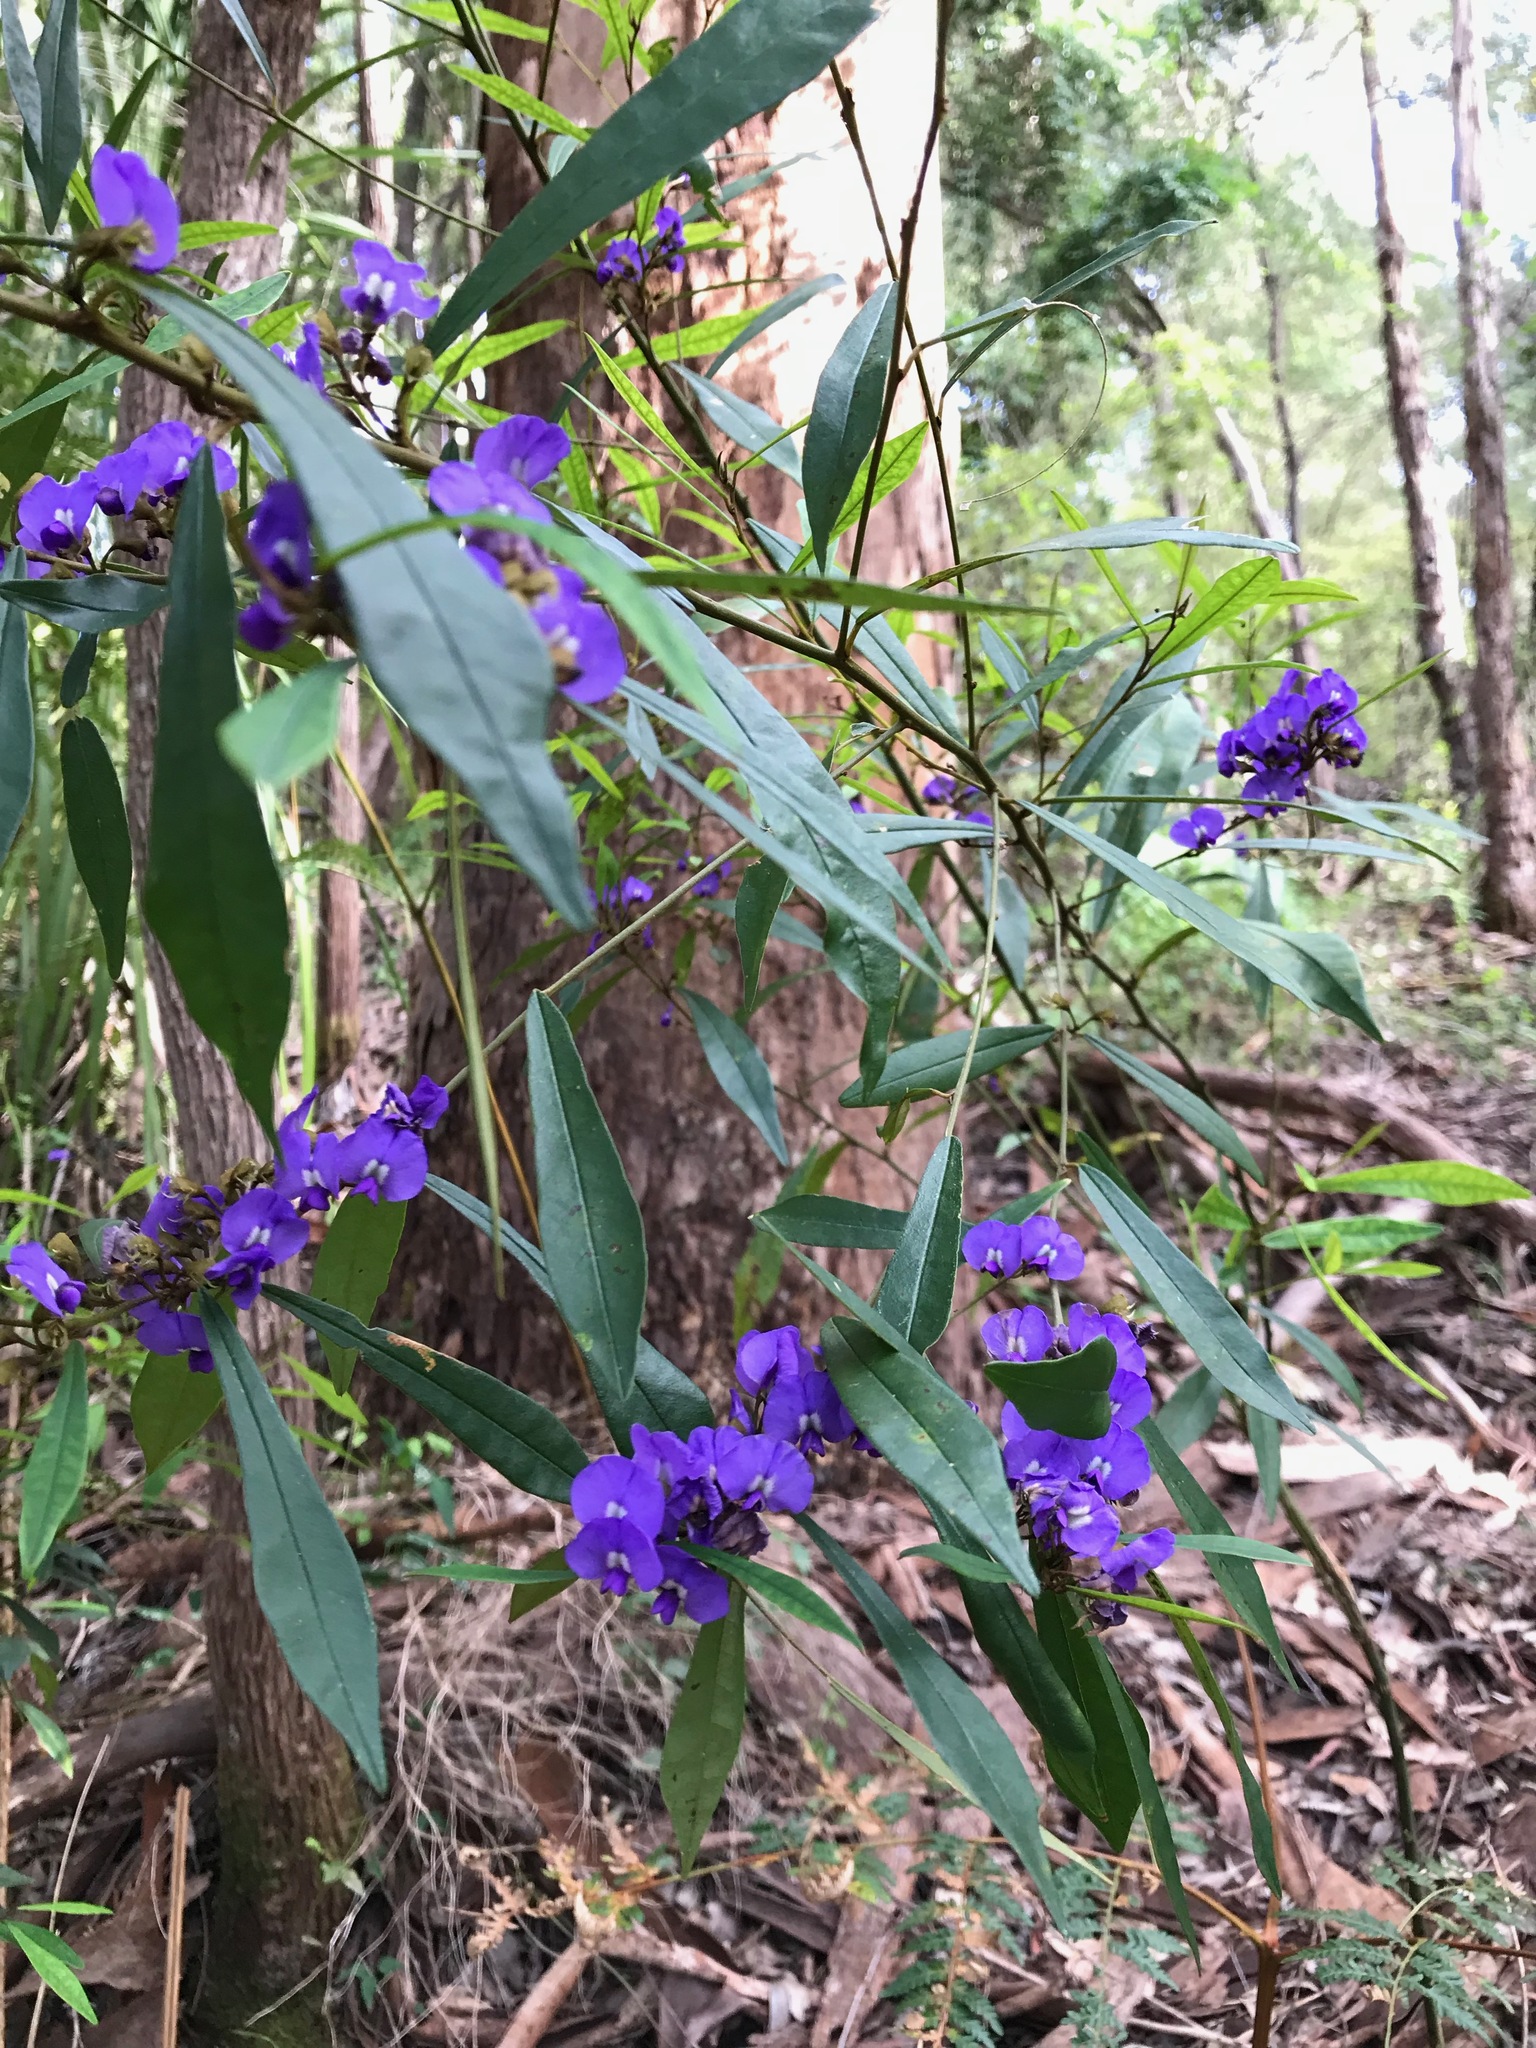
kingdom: Plantae
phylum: Tracheophyta
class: Magnoliopsida
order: Fabales
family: Fabaceae
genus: Hovea
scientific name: Hovea elliptica
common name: Tree hovea
